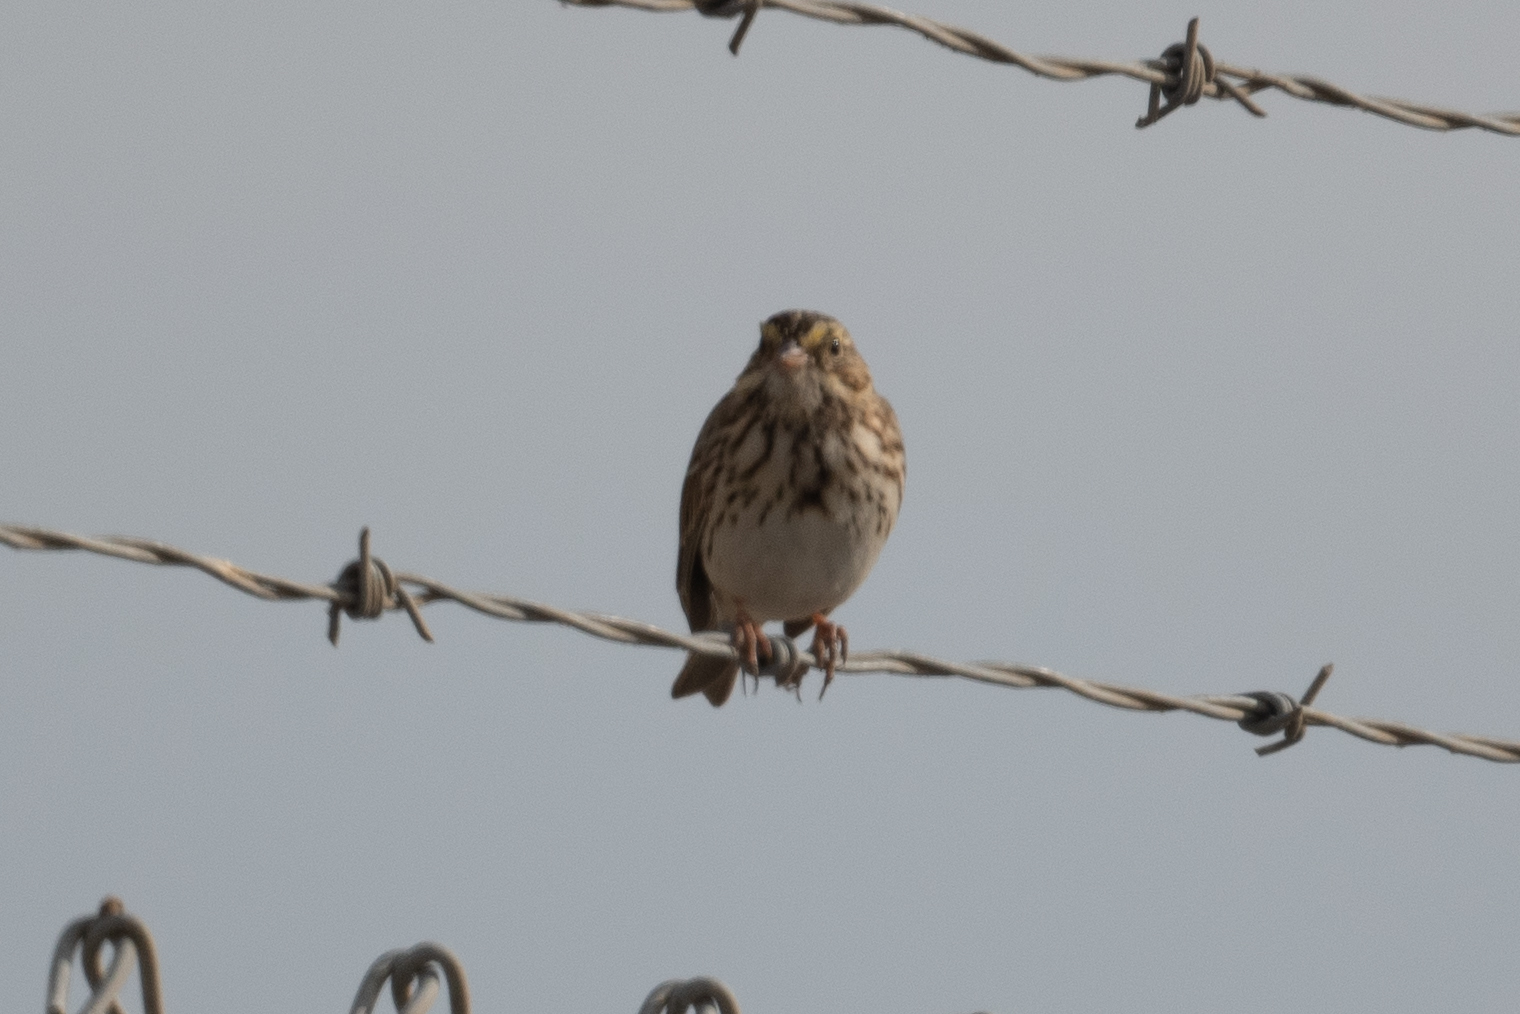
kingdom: Animalia
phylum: Chordata
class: Aves
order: Passeriformes
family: Passerellidae
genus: Passerculus
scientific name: Passerculus sandwichensis
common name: Savannah sparrow
